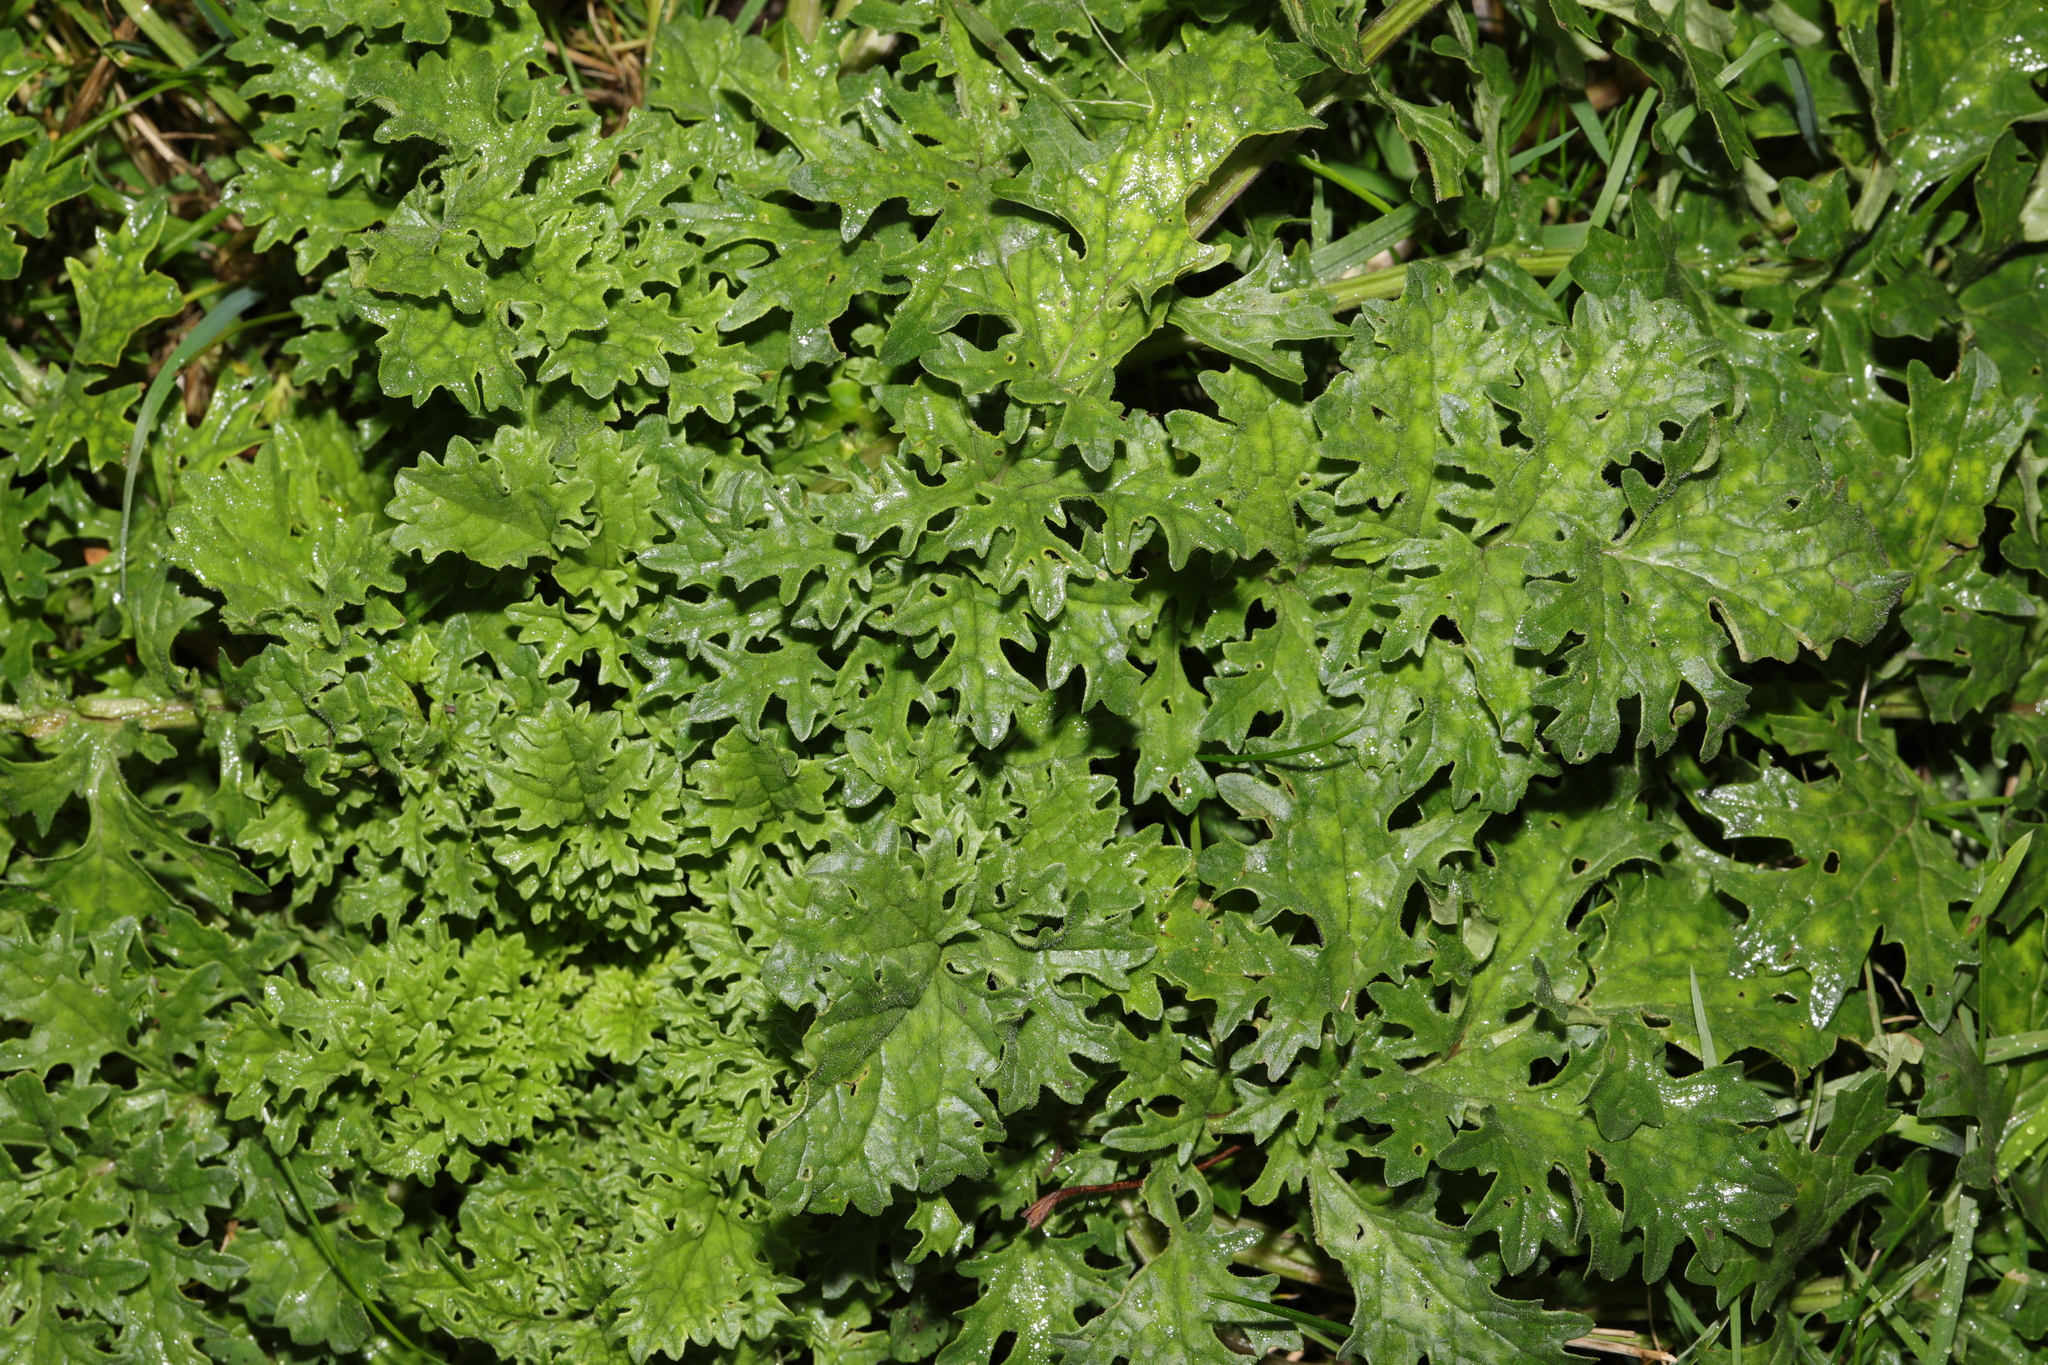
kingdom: Plantae
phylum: Tracheophyta
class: Magnoliopsida
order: Asterales
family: Asteraceae
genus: Jacobaea
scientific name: Jacobaea vulgaris
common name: Stinking willie
